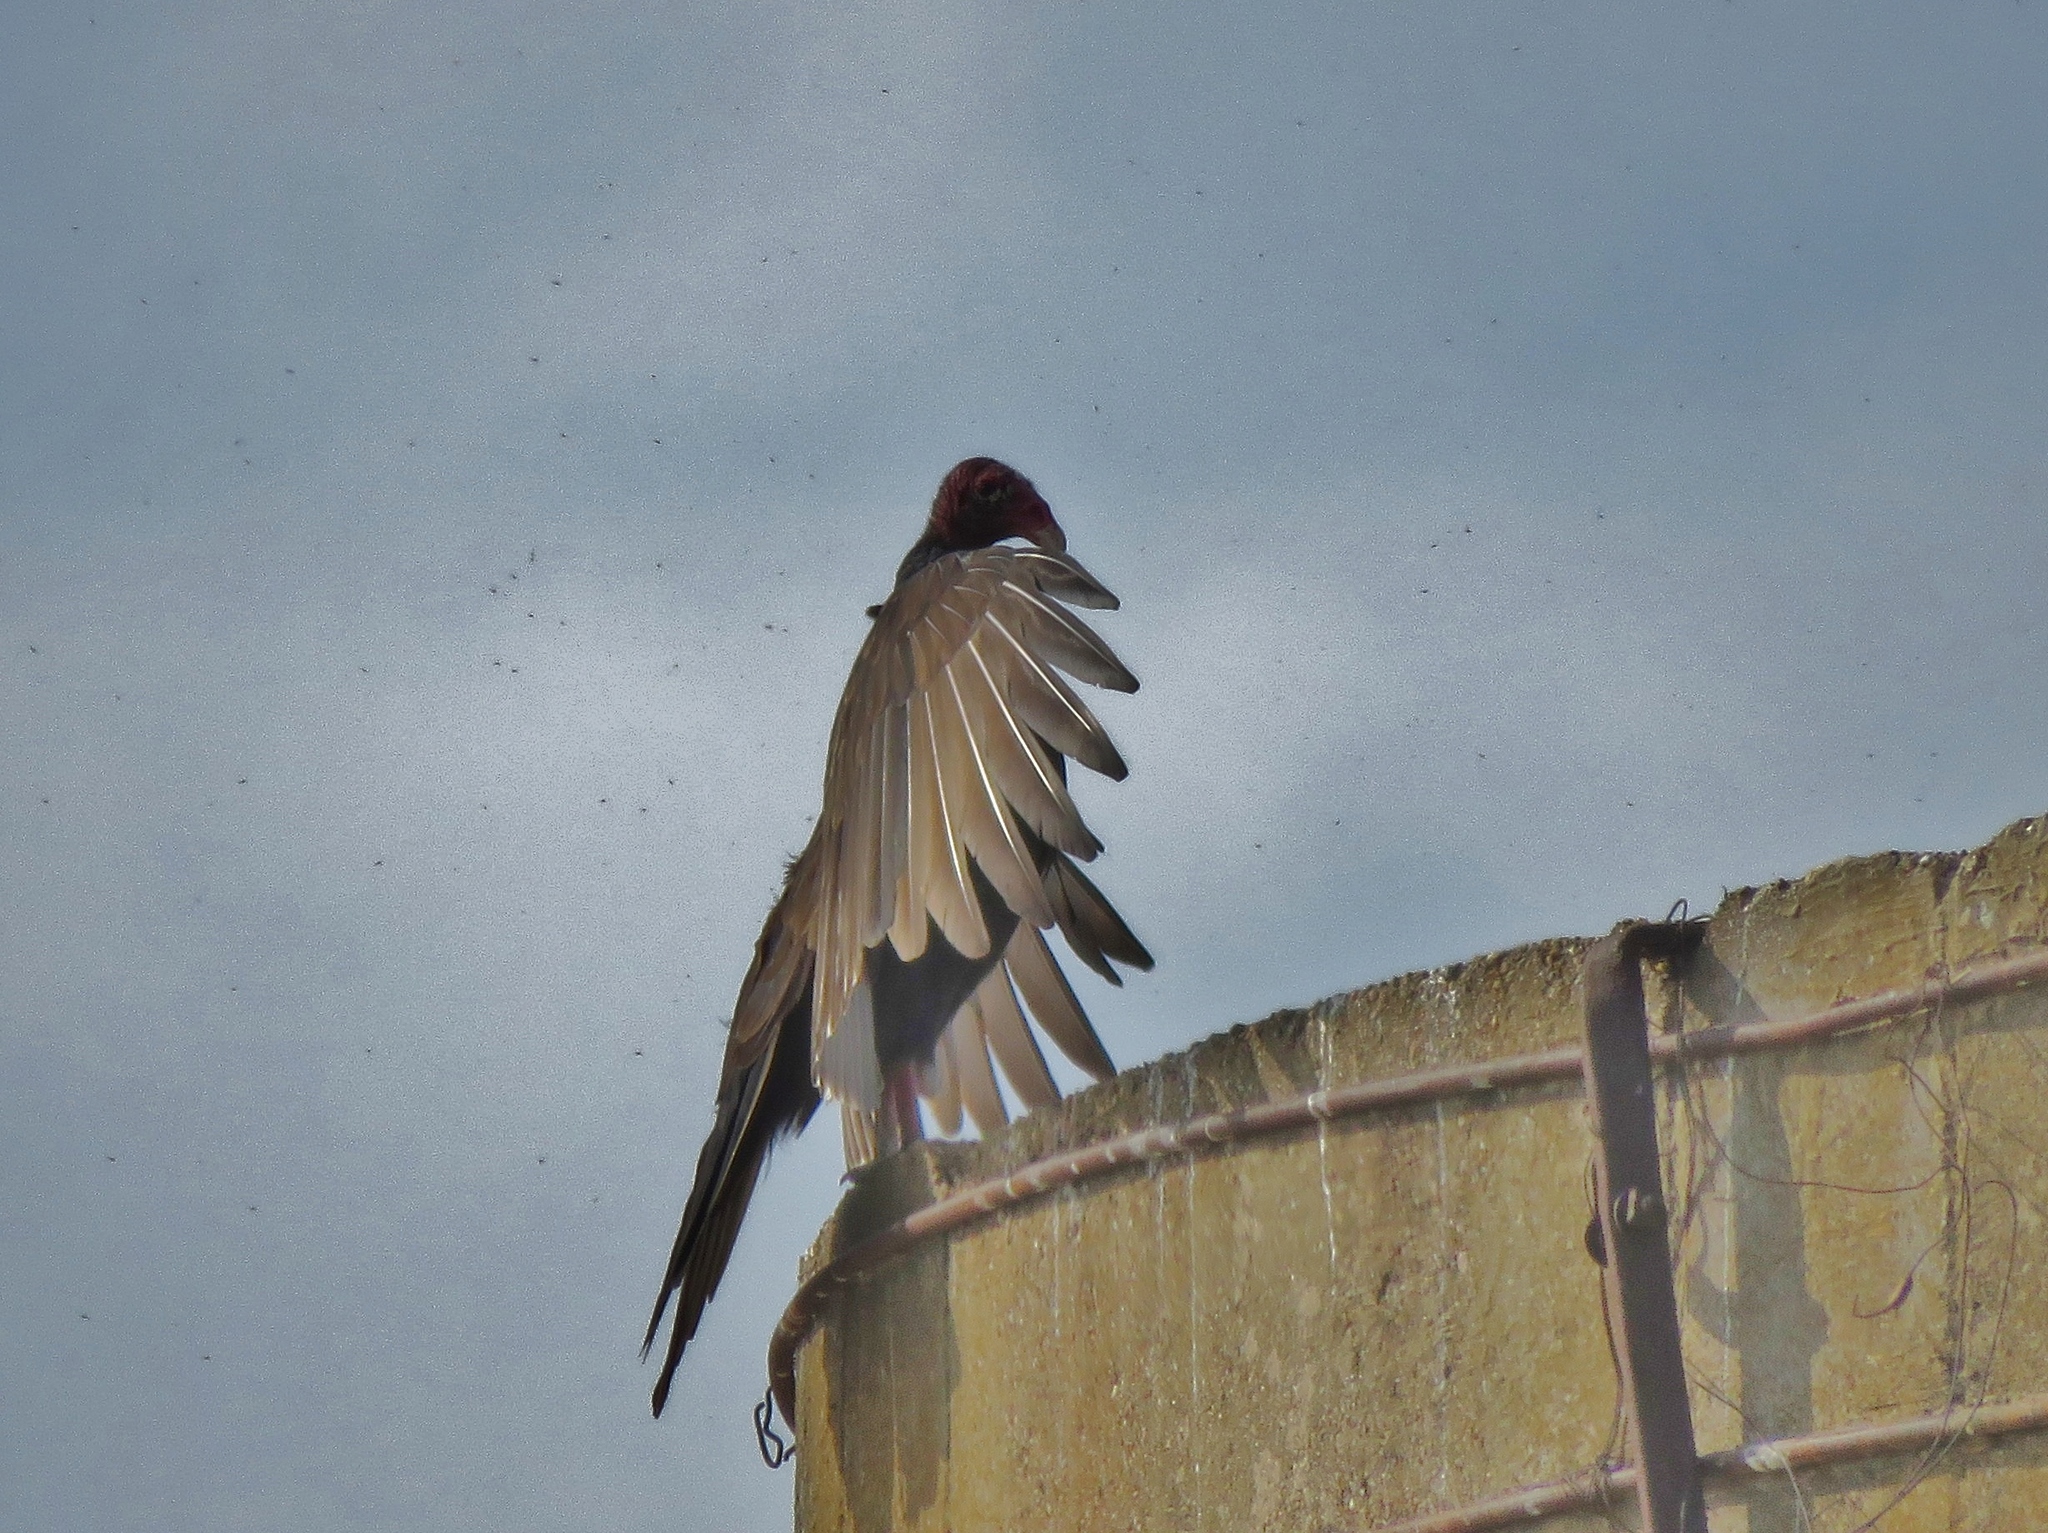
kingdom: Animalia
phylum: Chordata
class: Aves
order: Accipitriformes
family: Cathartidae
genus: Cathartes
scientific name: Cathartes aura
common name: Turkey vulture
